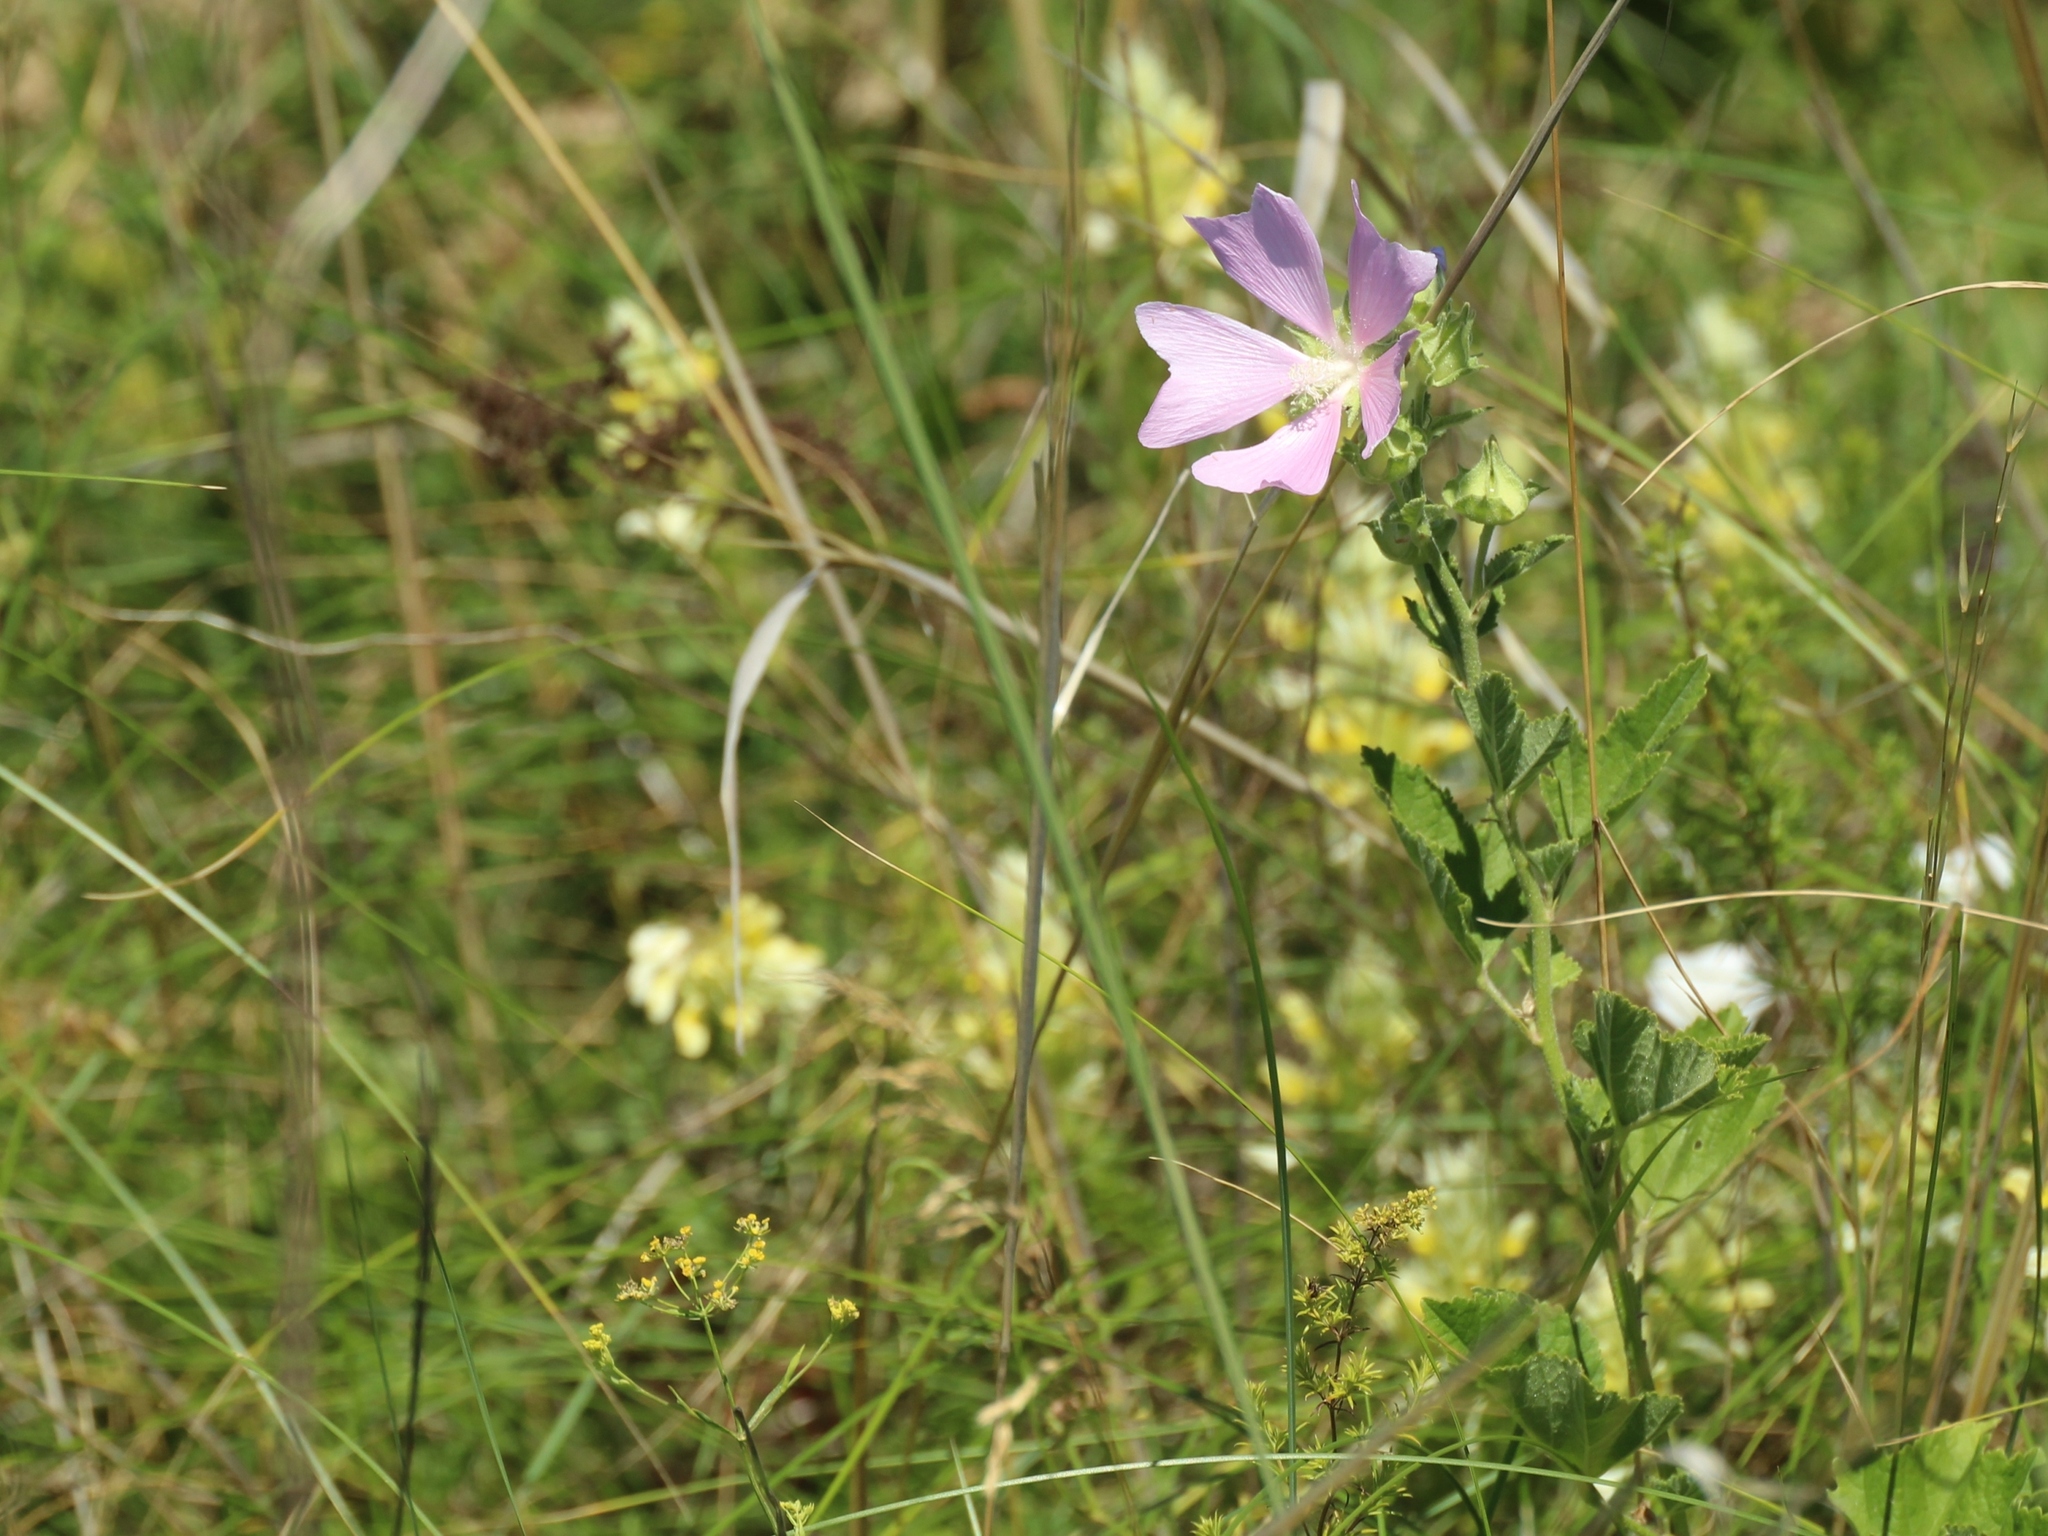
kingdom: Plantae
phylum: Tracheophyta
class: Magnoliopsida
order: Malvales
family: Malvaceae
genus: Malva
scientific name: Malva thuringiaca
